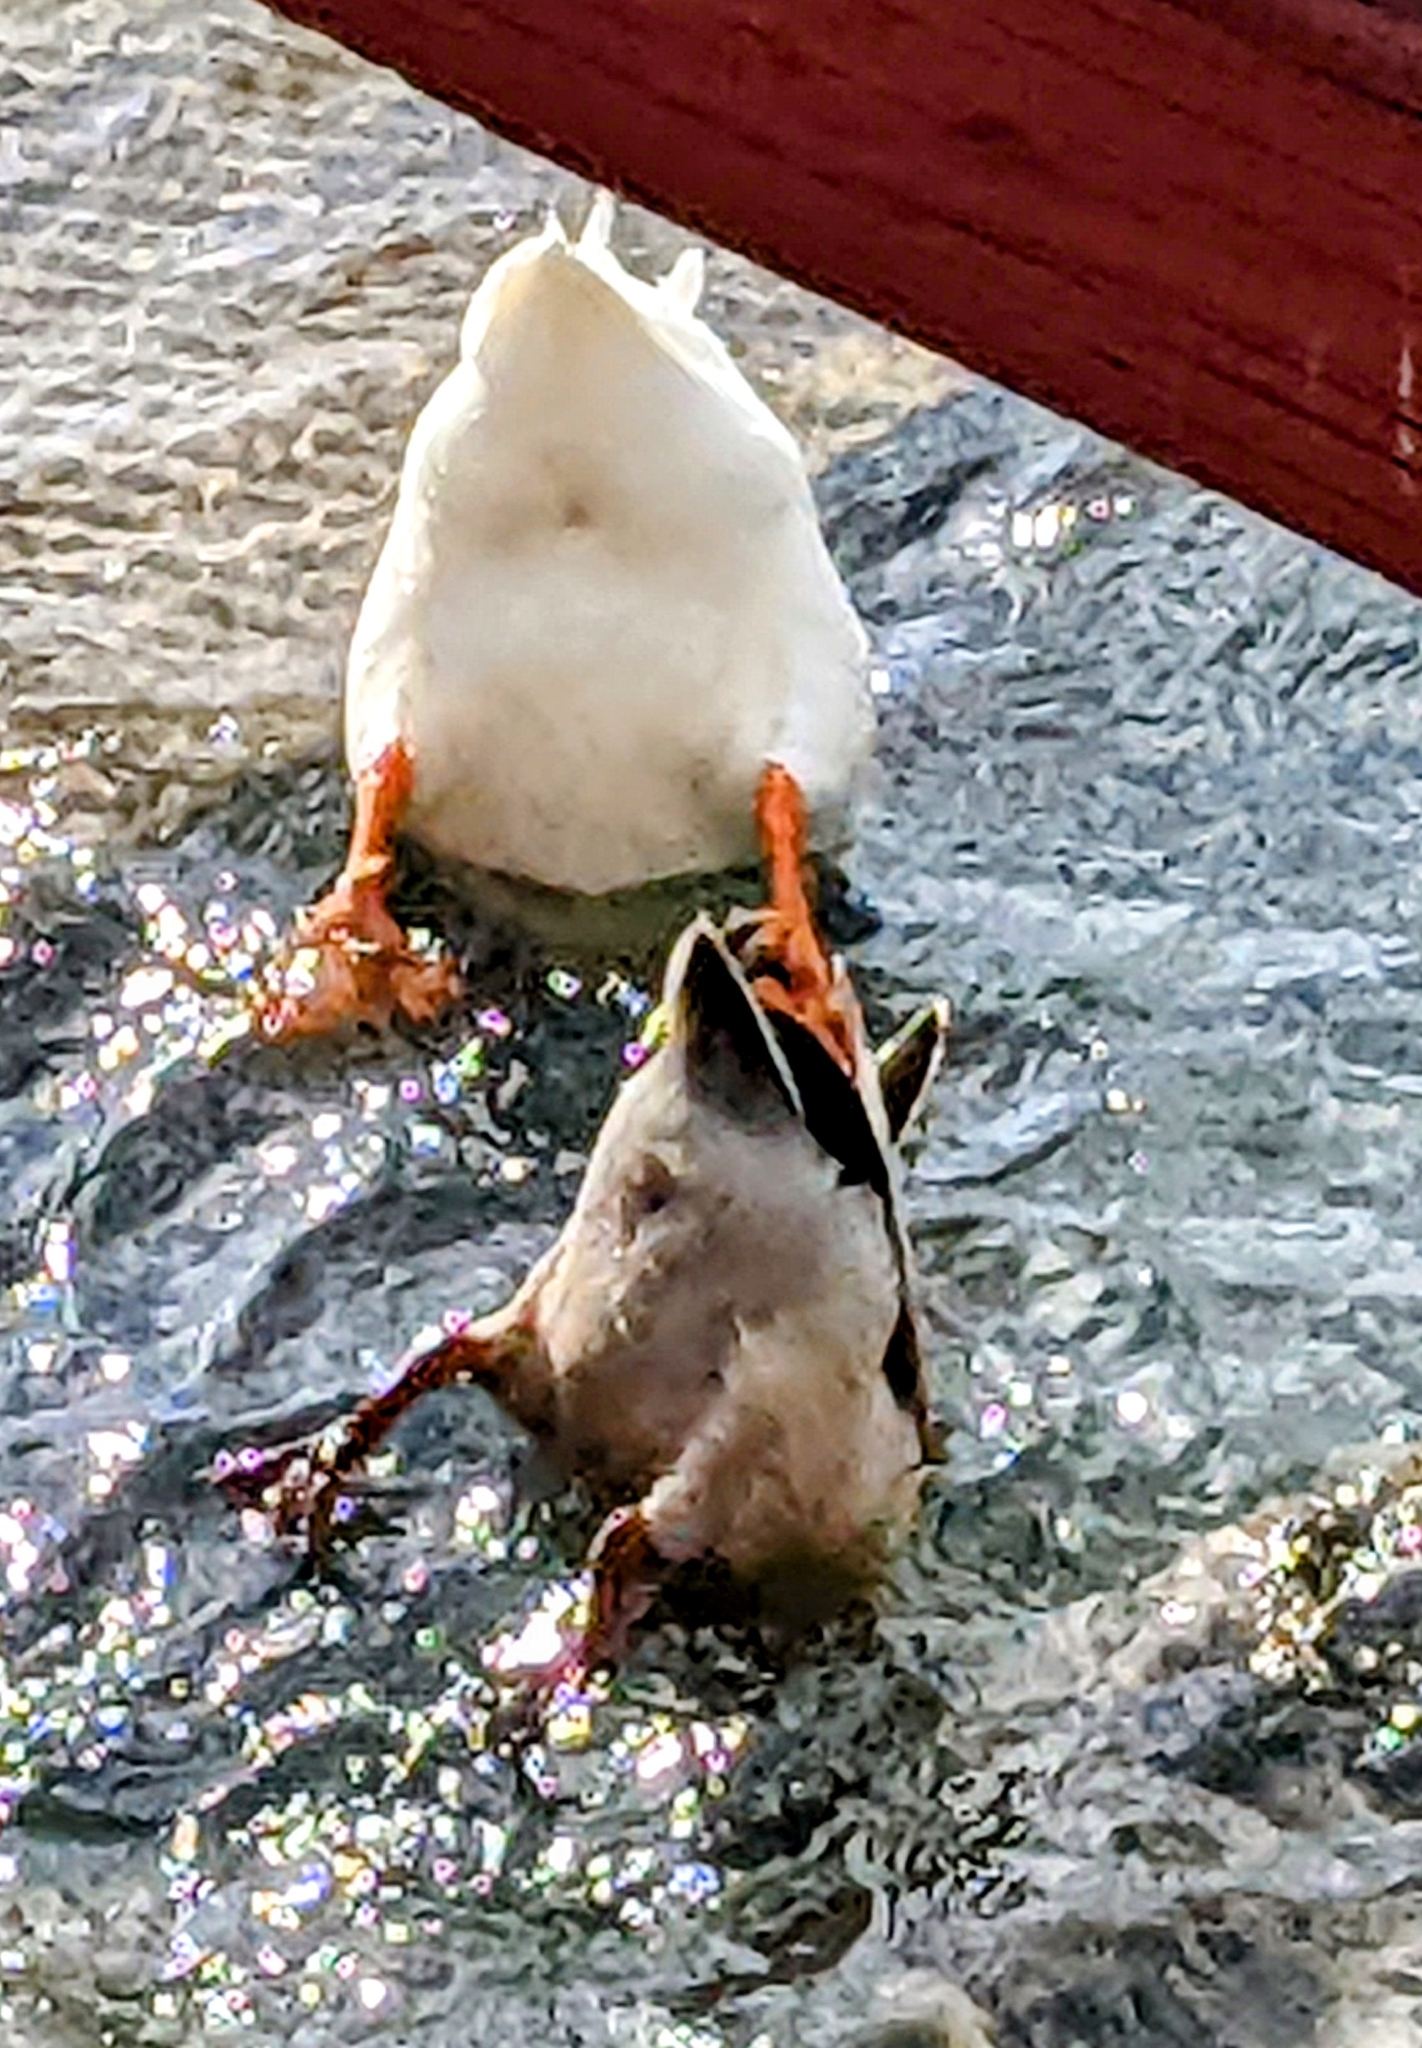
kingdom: Animalia
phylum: Chordata
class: Aves
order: Anseriformes
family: Anatidae
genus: Cairina
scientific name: Cairina moschata
